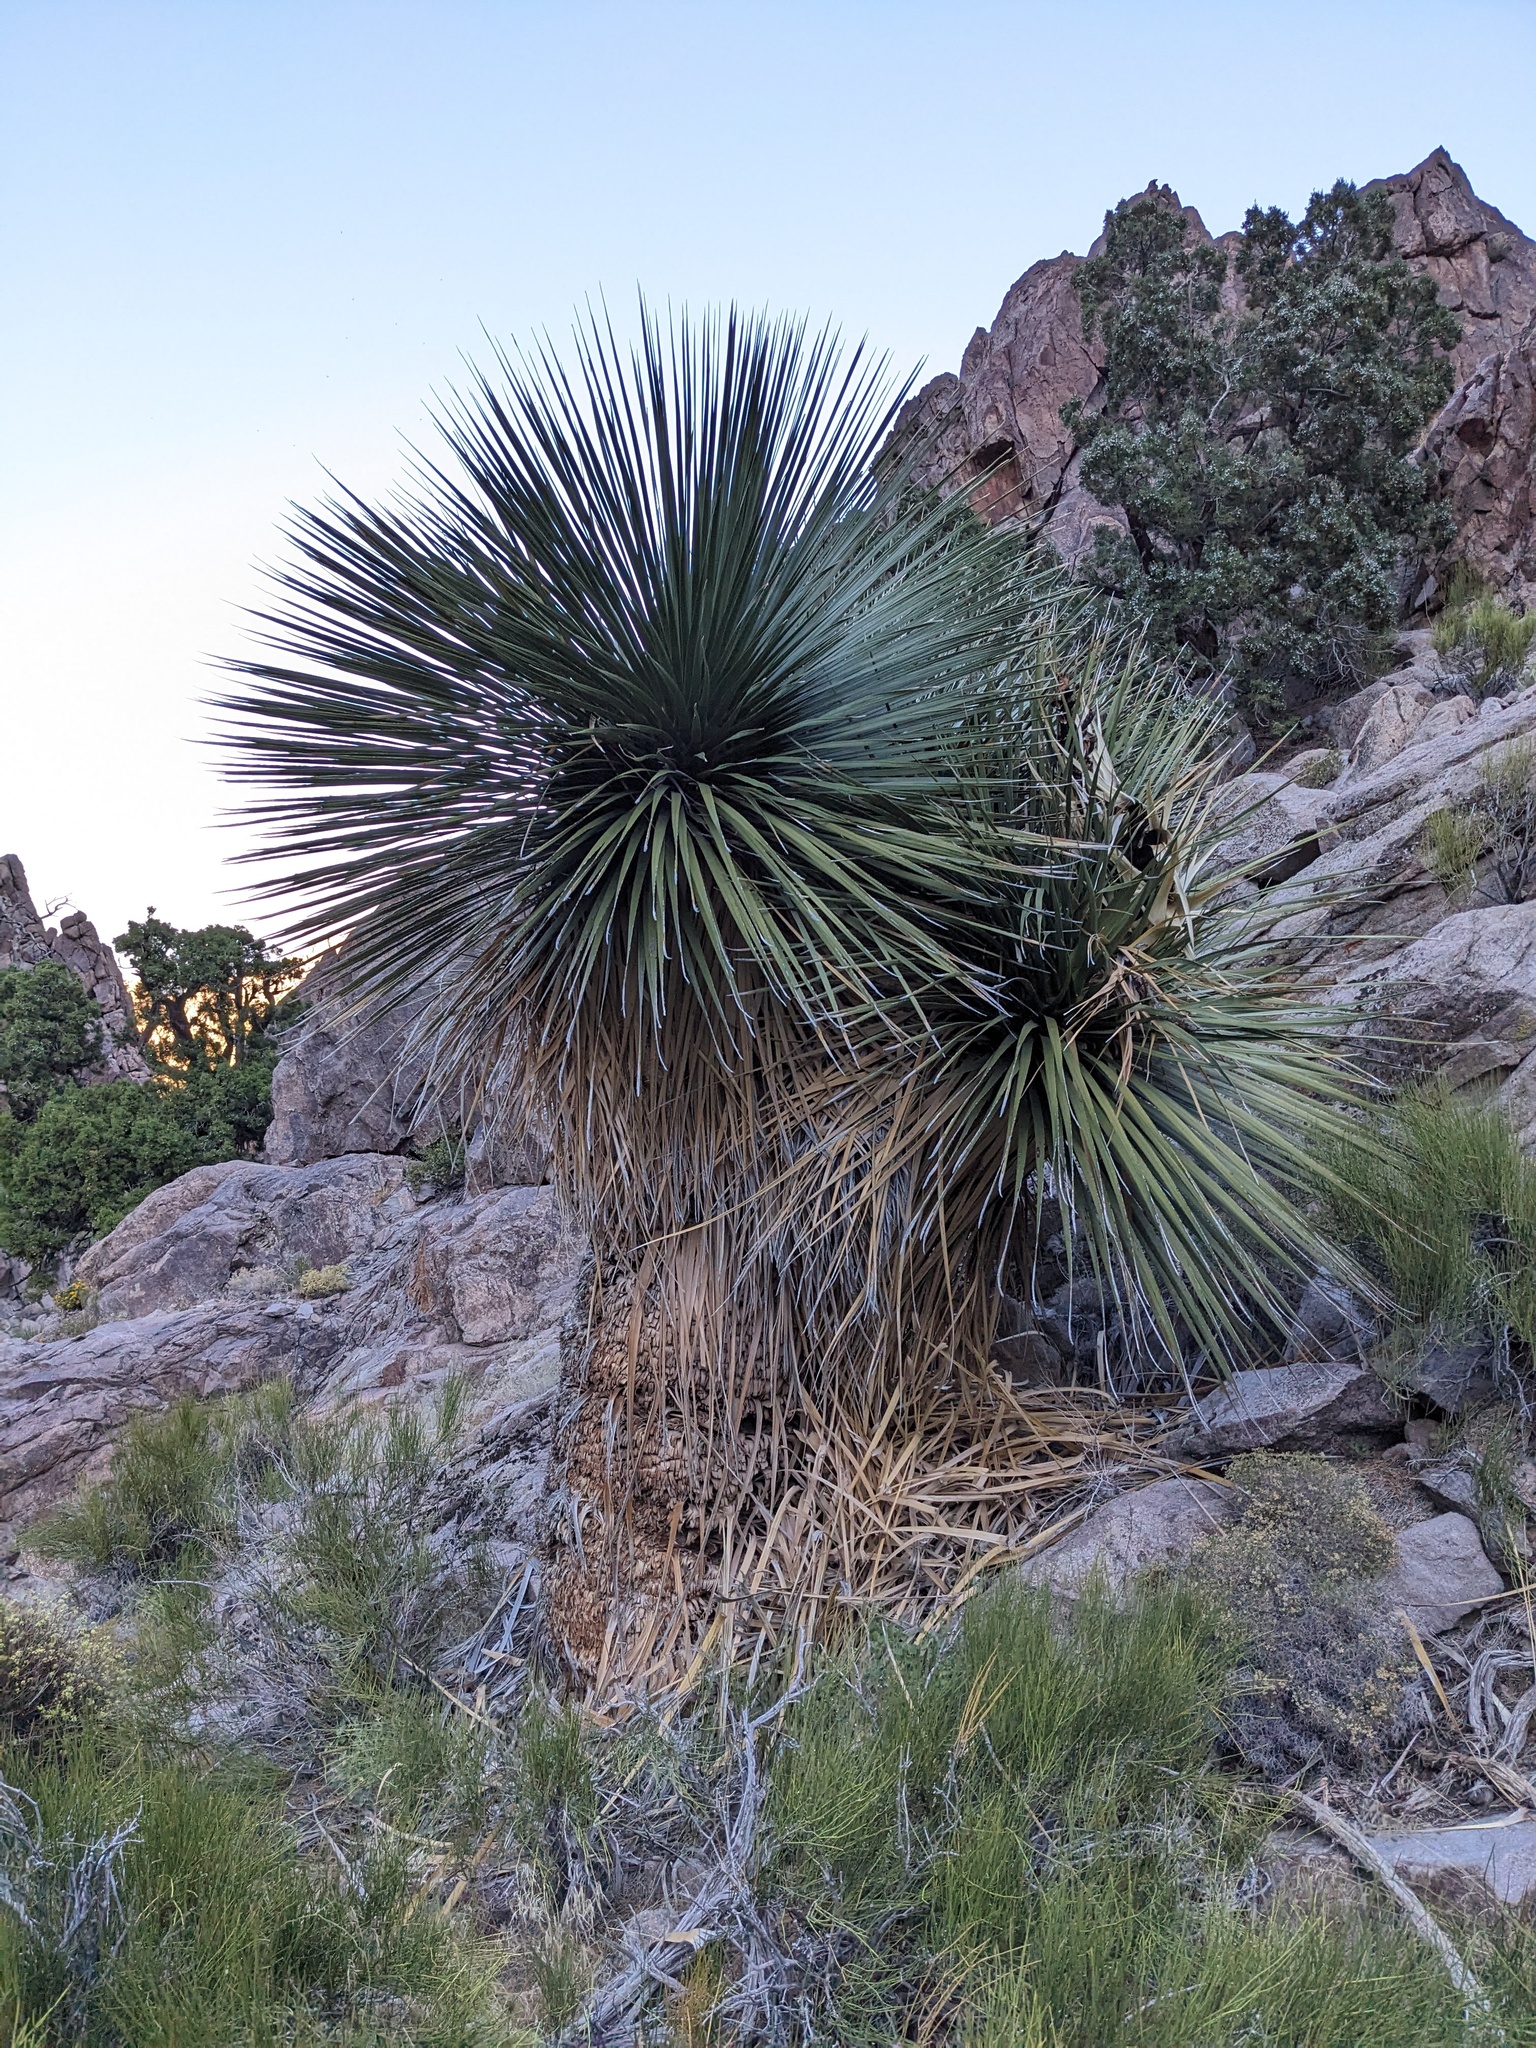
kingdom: Plantae
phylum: Tracheophyta
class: Liliopsida
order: Asparagales
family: Asparagaceae
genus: Nolina
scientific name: Nolina parryi
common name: Parry nolina
